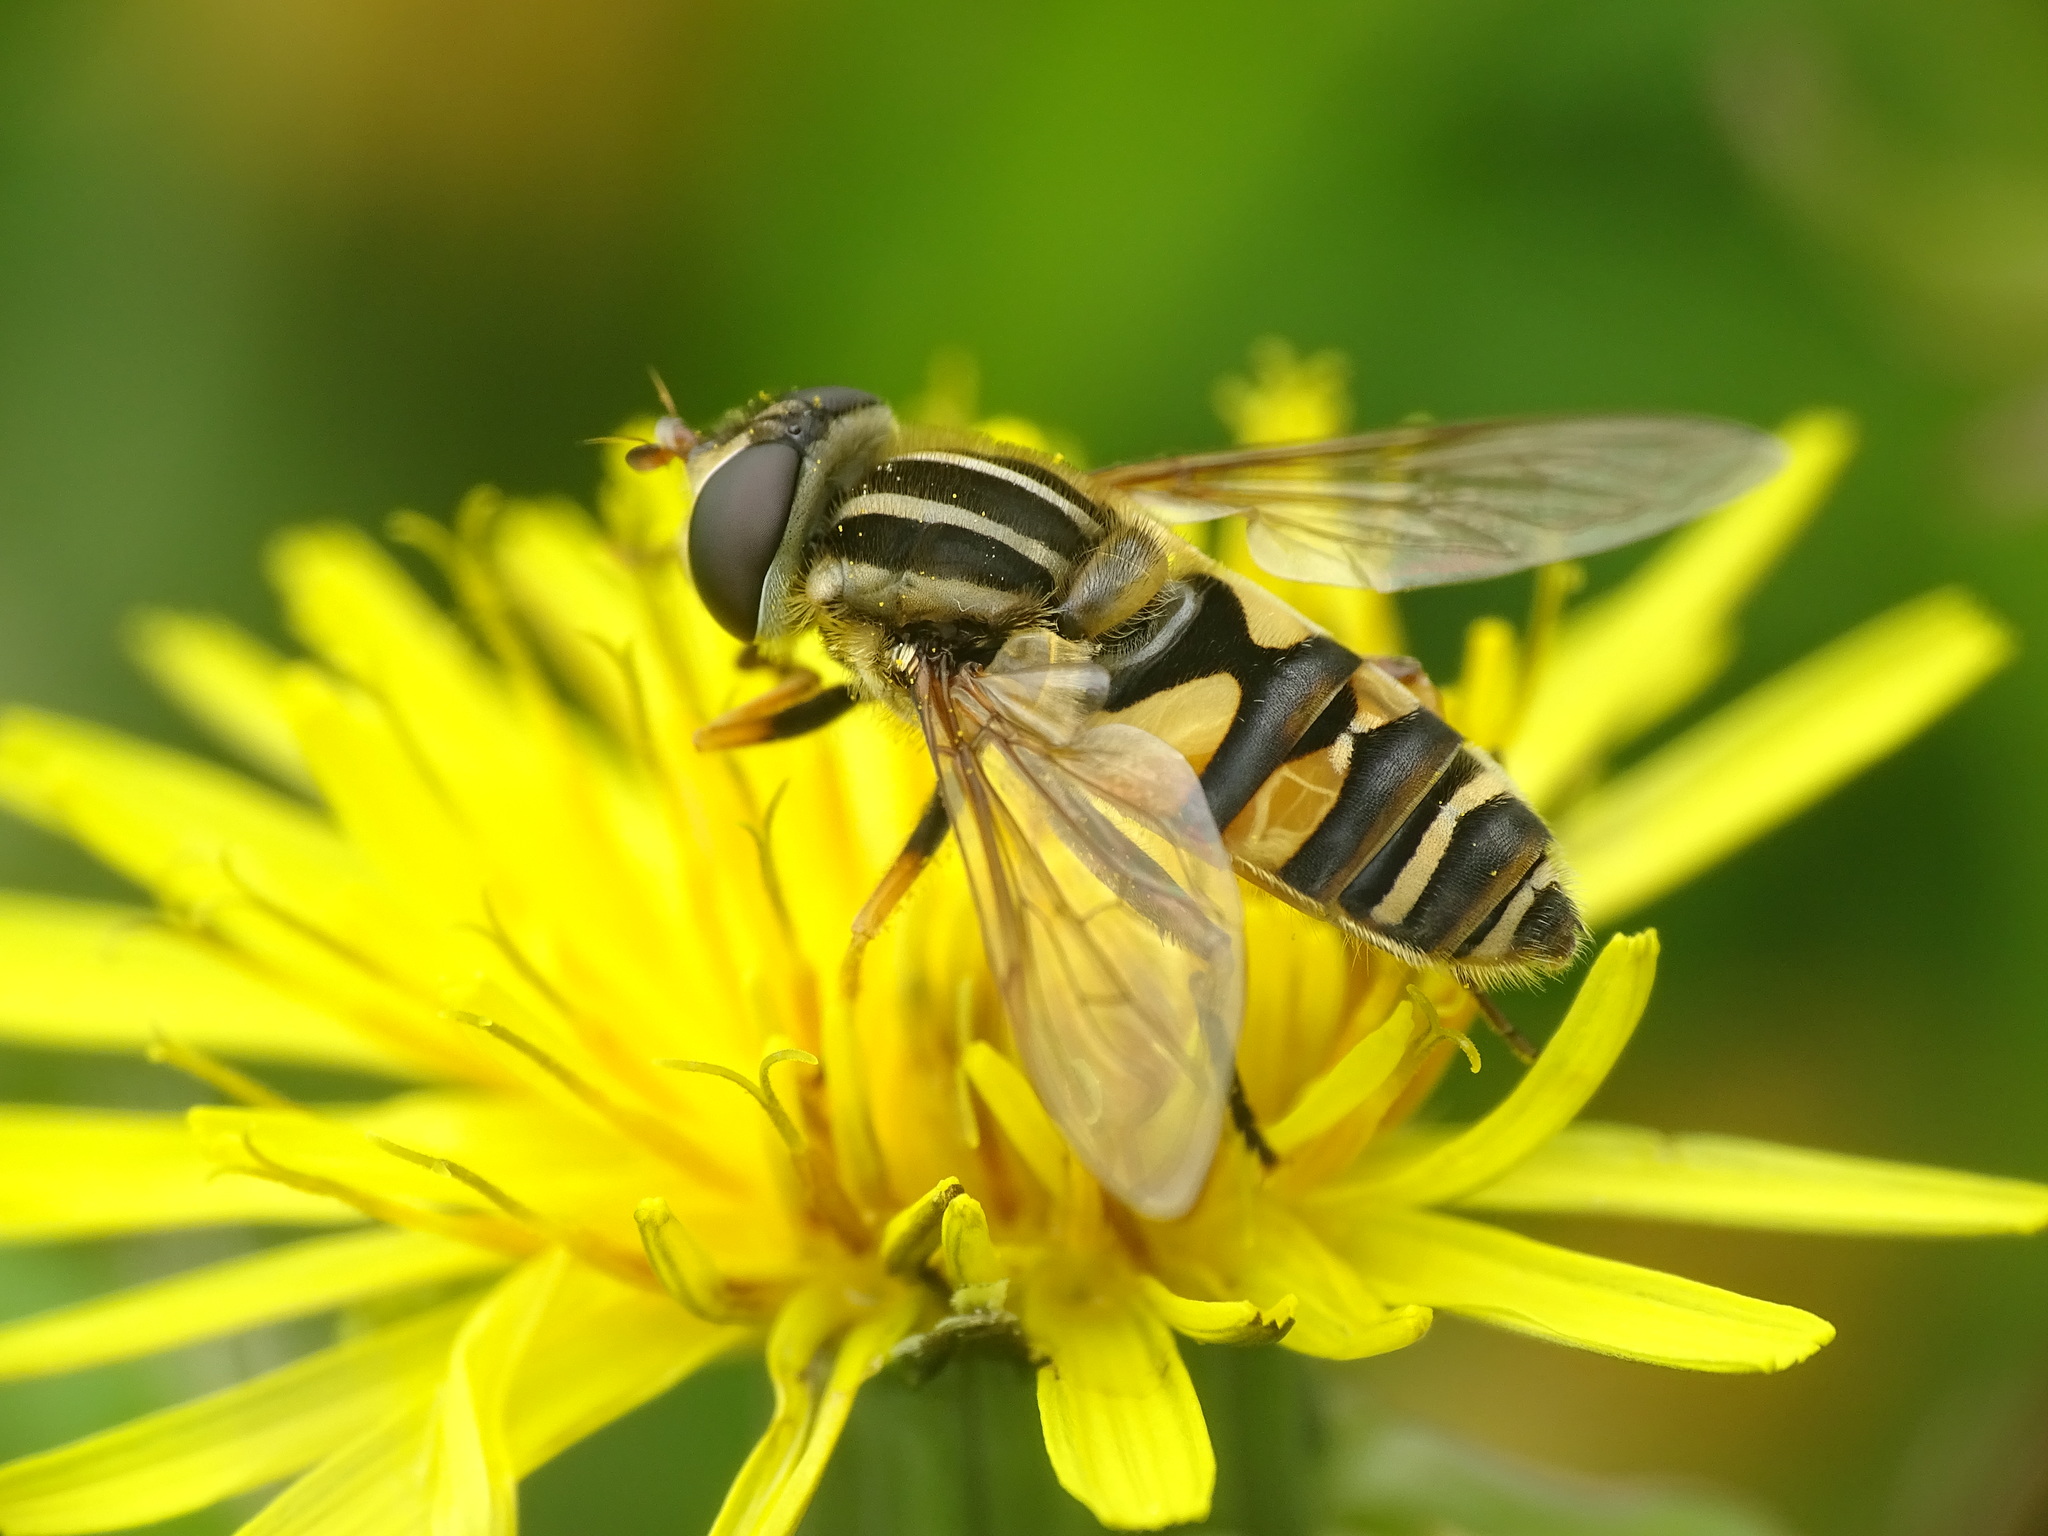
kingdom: Animalia
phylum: Arthropoda
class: Insecta
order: Diptera
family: Syrphidae
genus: Helophilus
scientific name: Helophilus fasciatus
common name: Narrow-headed marsh fly
